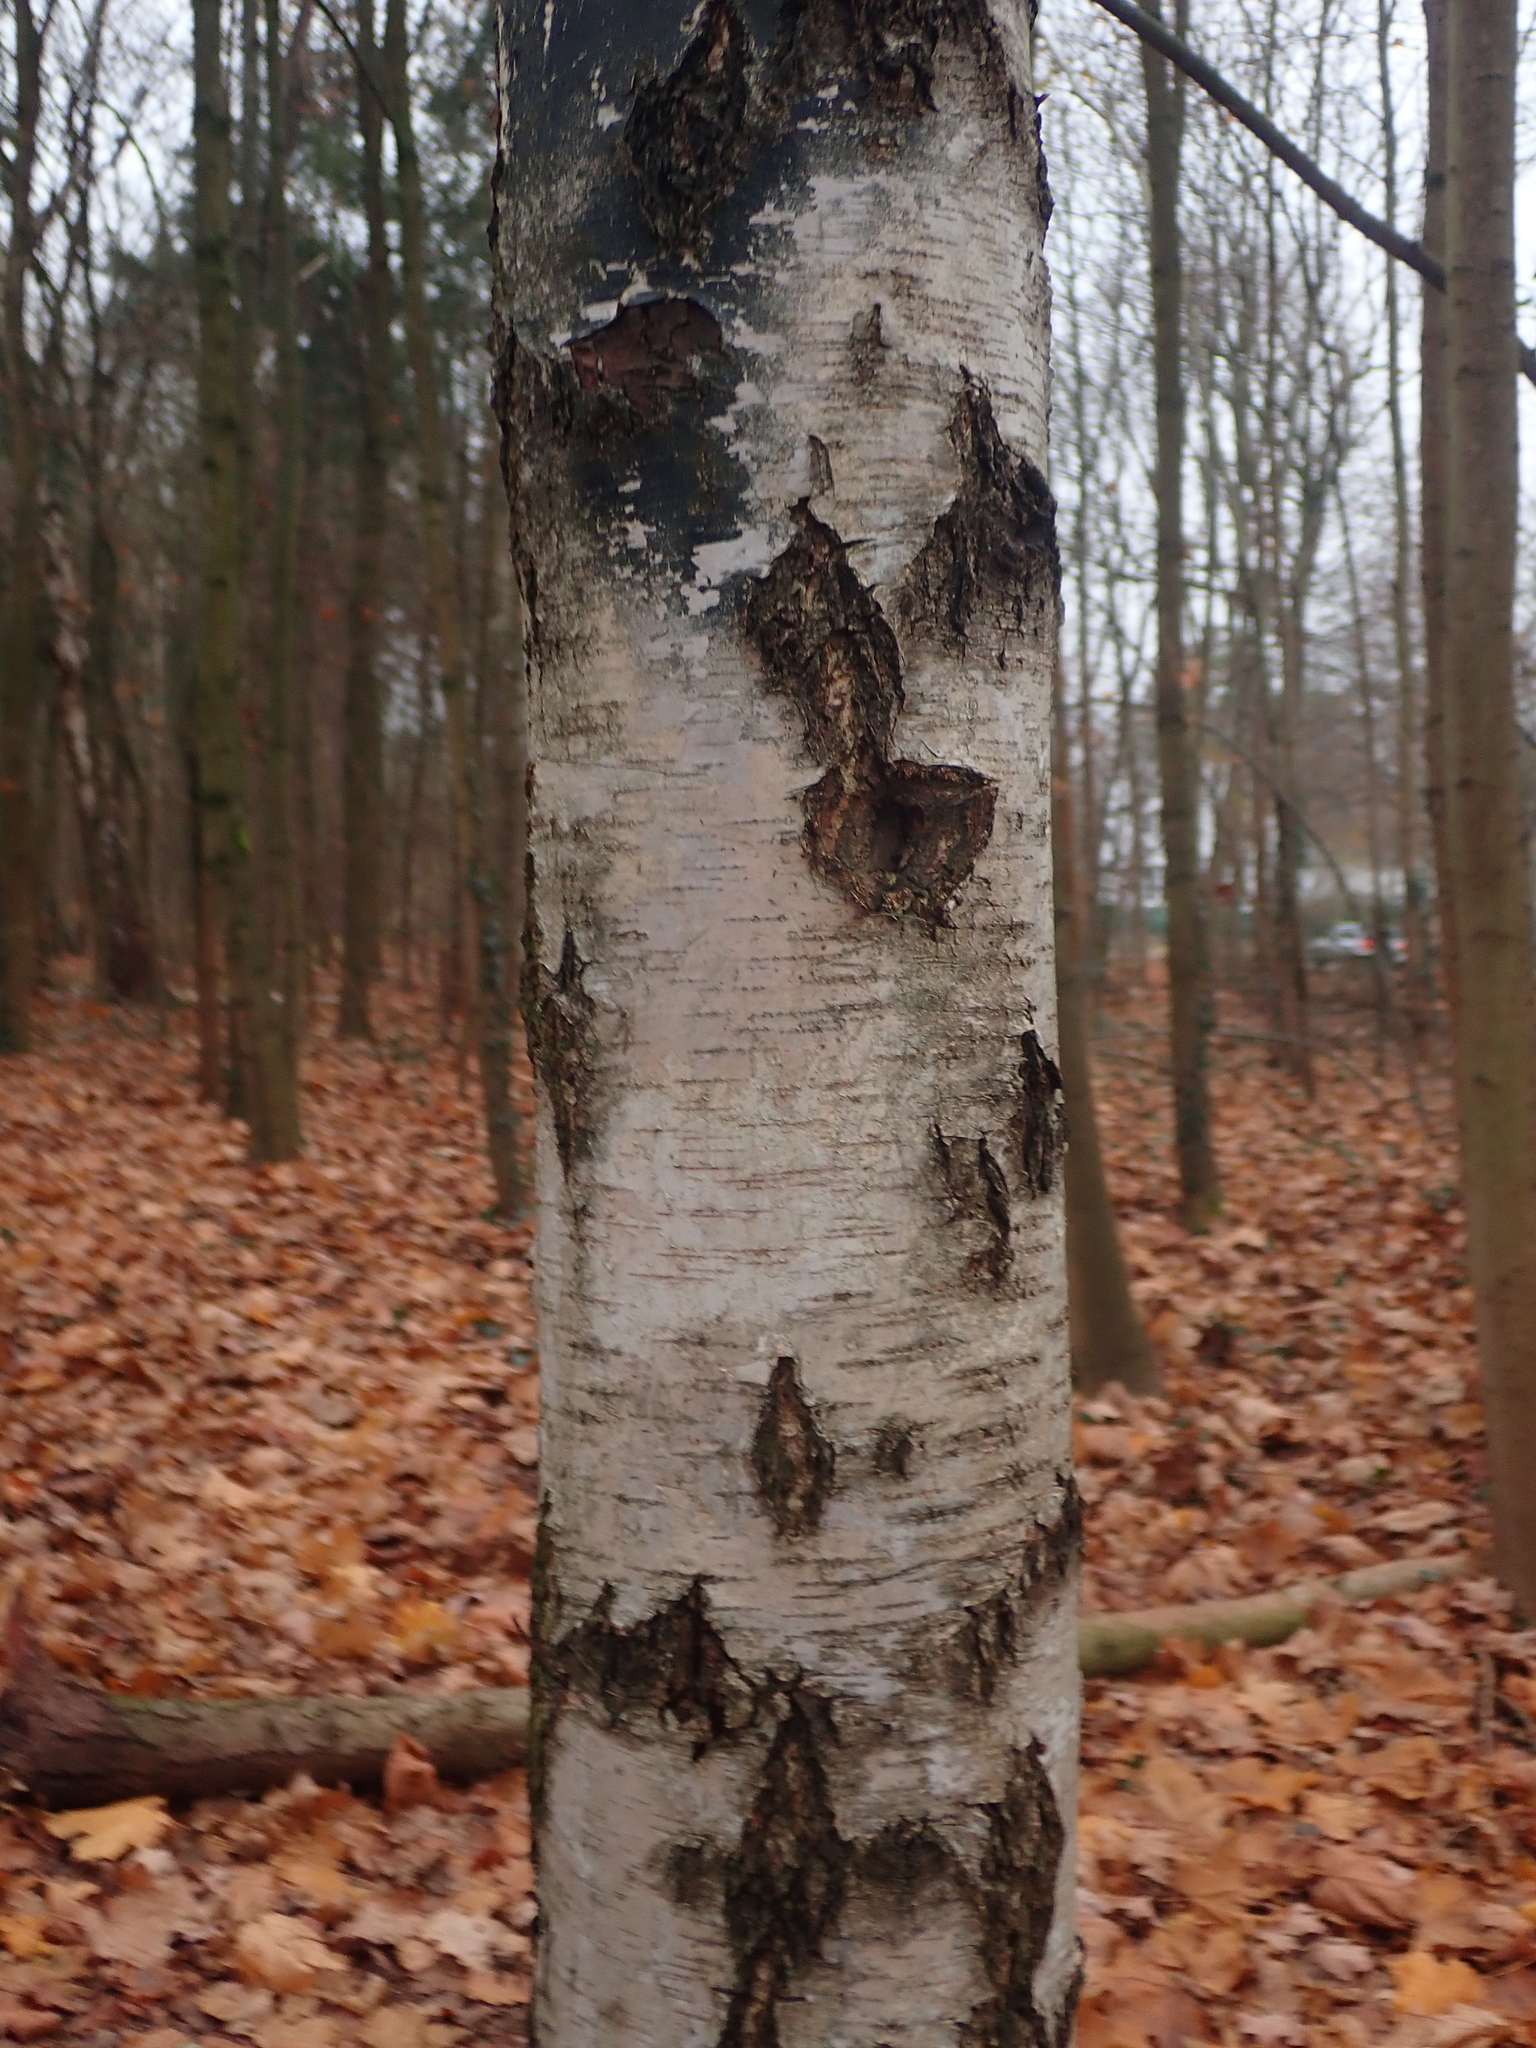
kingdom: Plantae
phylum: Tracheophyta
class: Magnoliopsida
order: Fagales
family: Betulaceae
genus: Betula
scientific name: Betula pendula
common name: Silver birch
